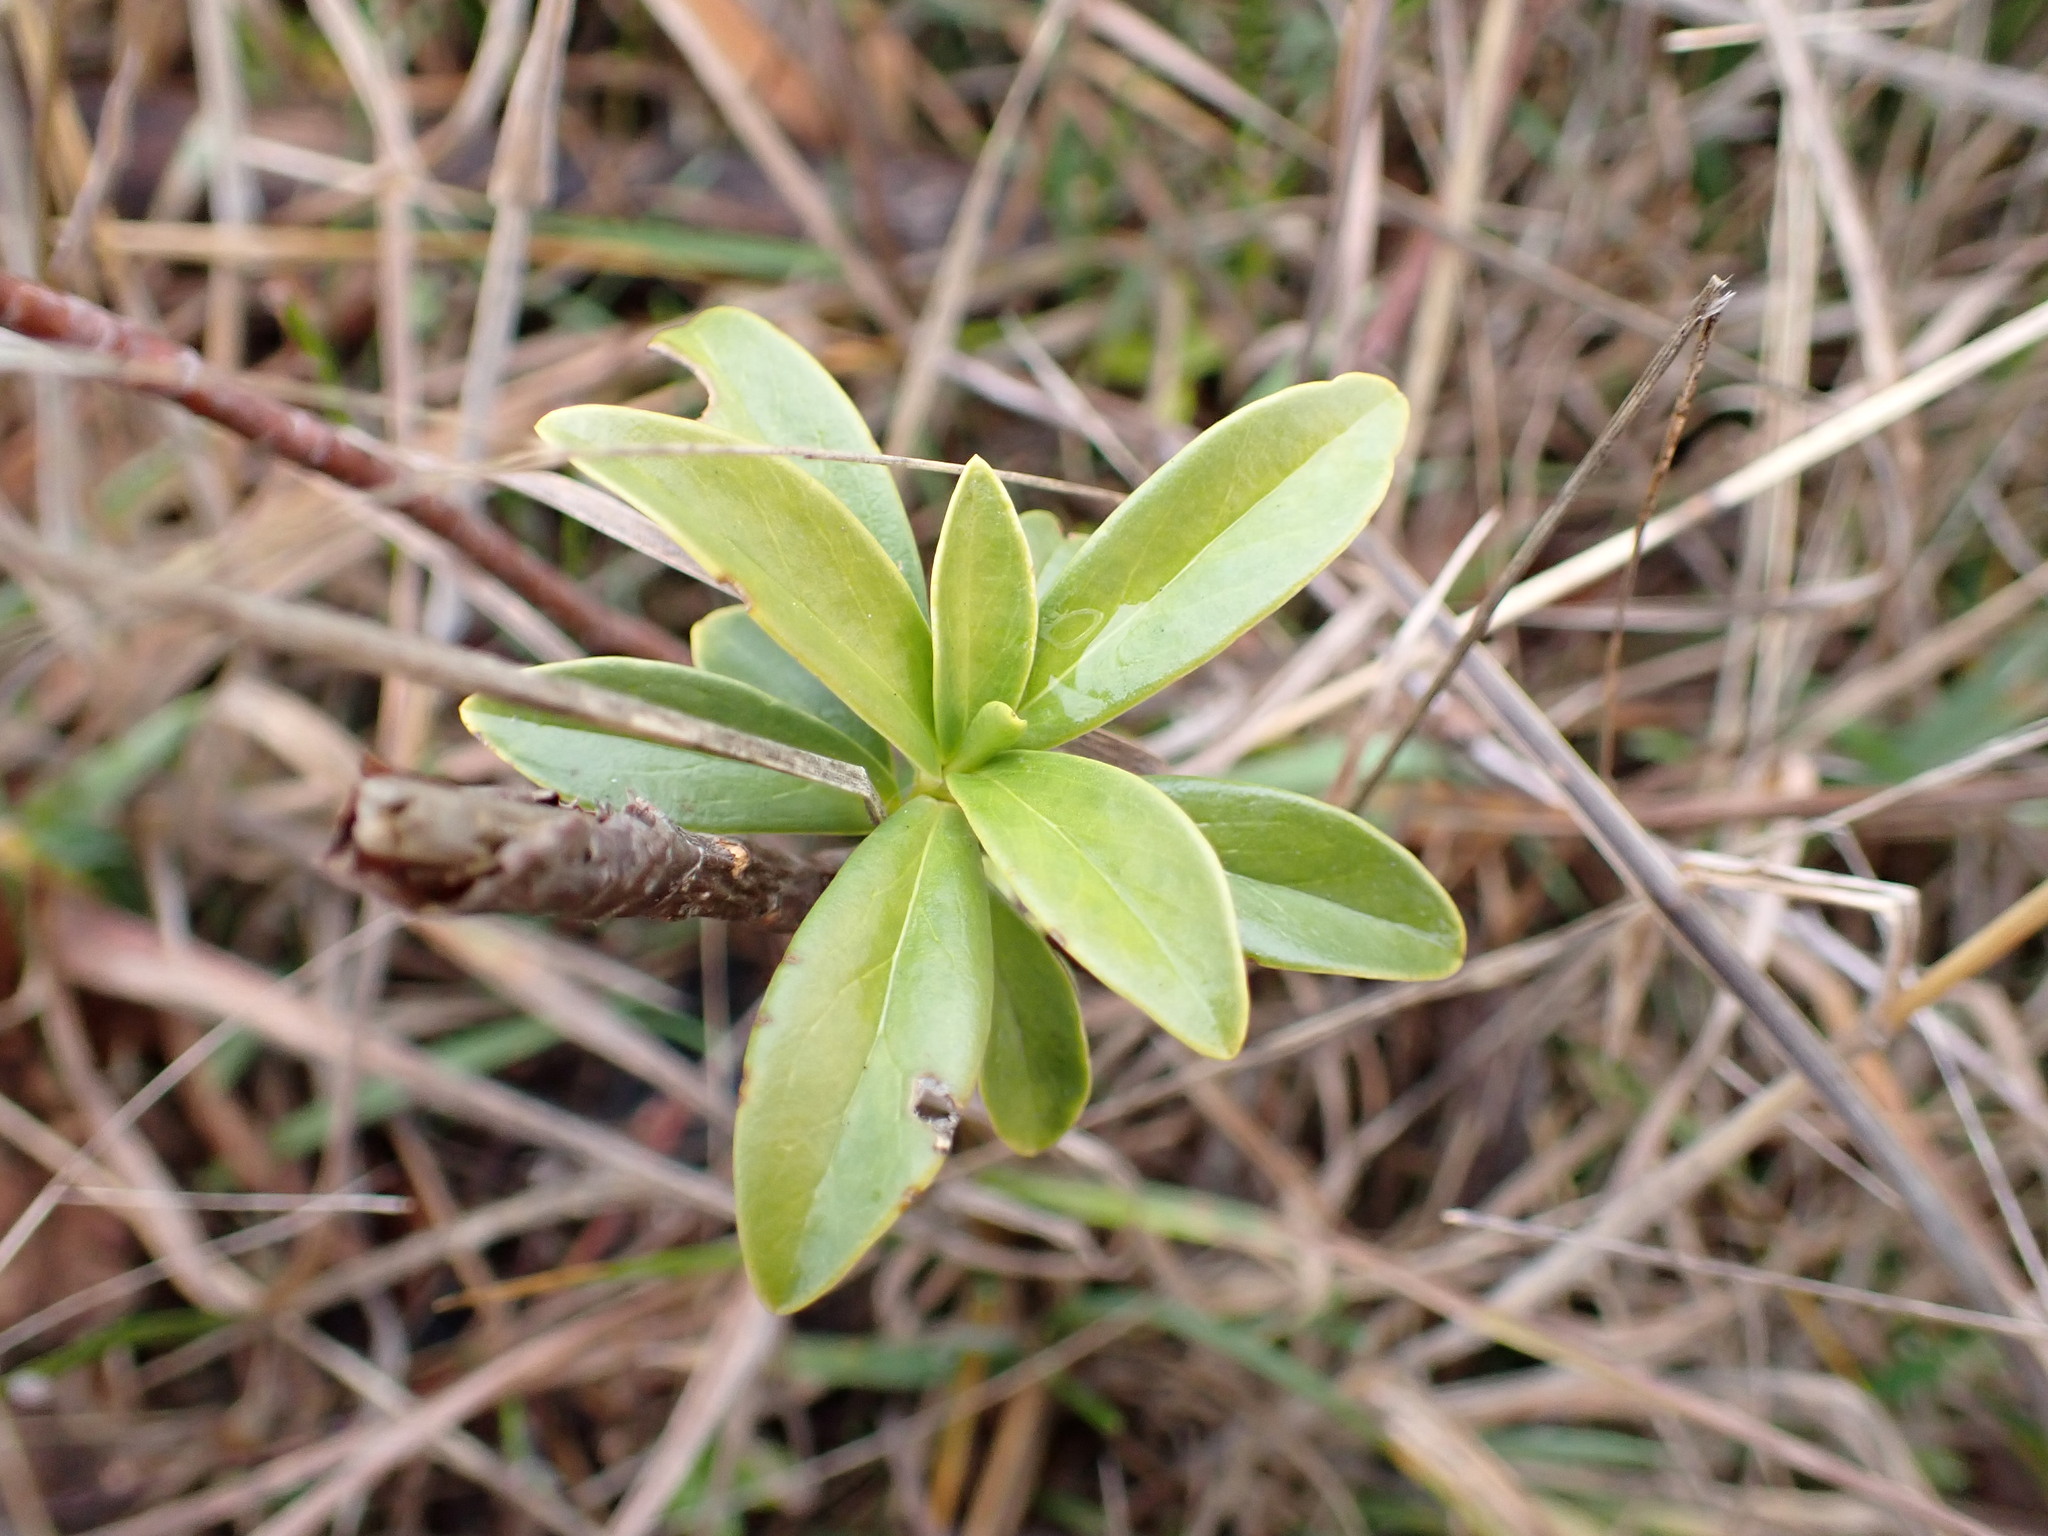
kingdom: Plantae
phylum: Tracheophyta
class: Magnoliopsida
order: Malvales
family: Thymelaeaceae
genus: Daphne
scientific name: Daphne laureola
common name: Spurge-laurel
